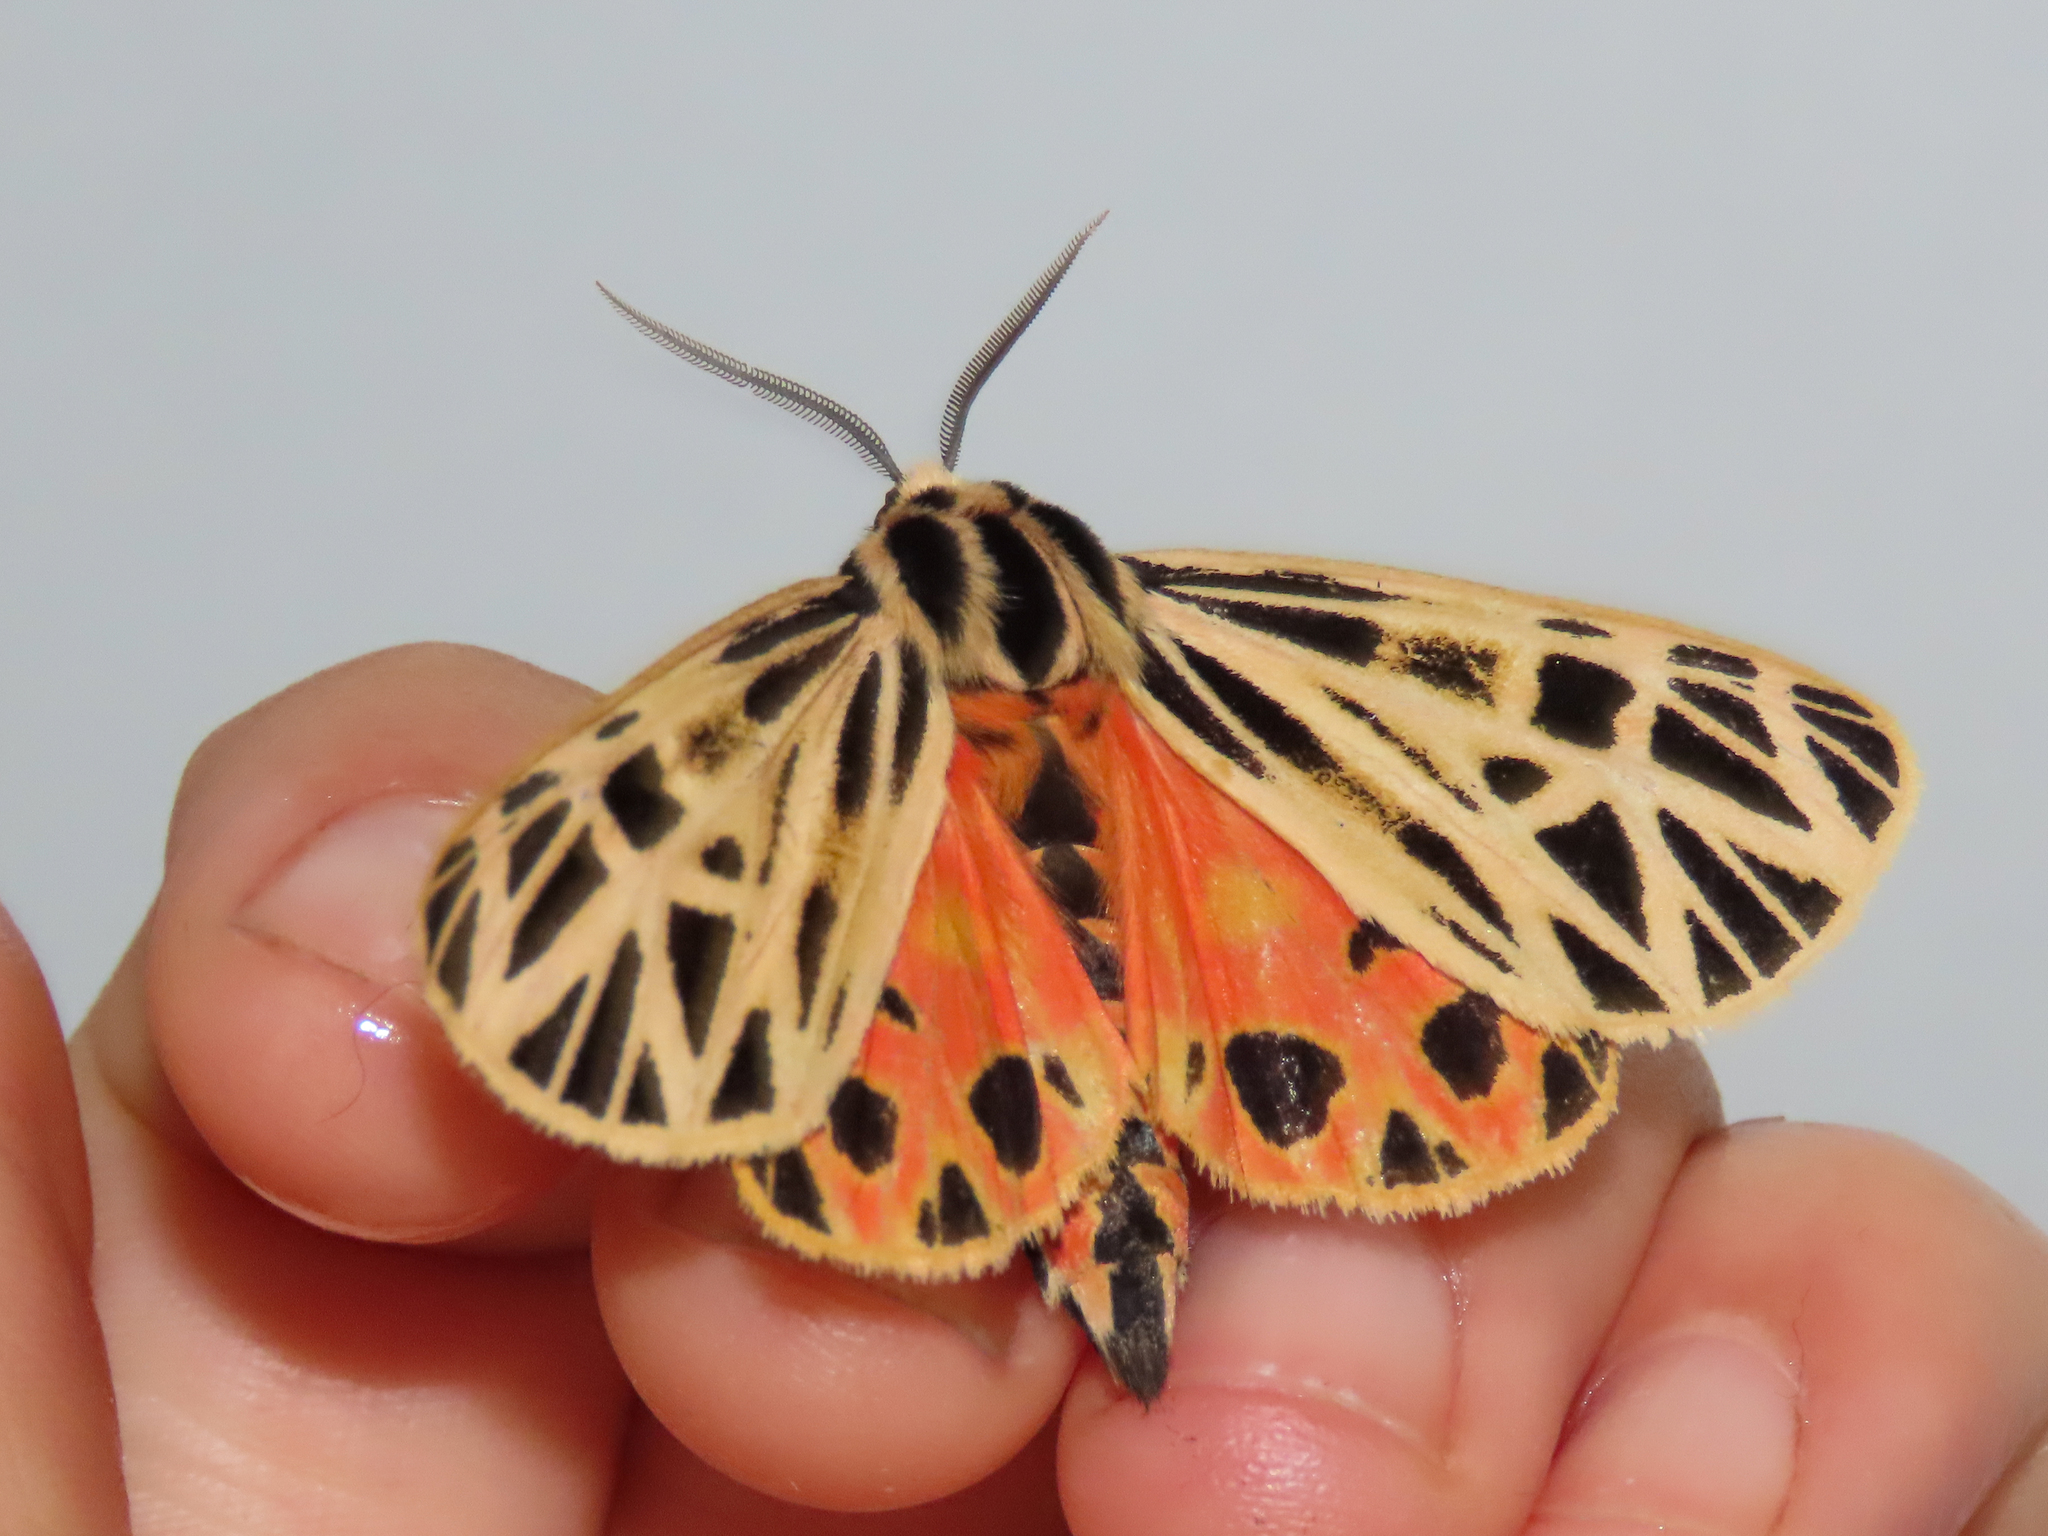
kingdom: Animalia
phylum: Arthropoda
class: Insecta
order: Lepidoptera
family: Erebidae
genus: Grammia
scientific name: Grammia virgo
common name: Virgin tiger moth
